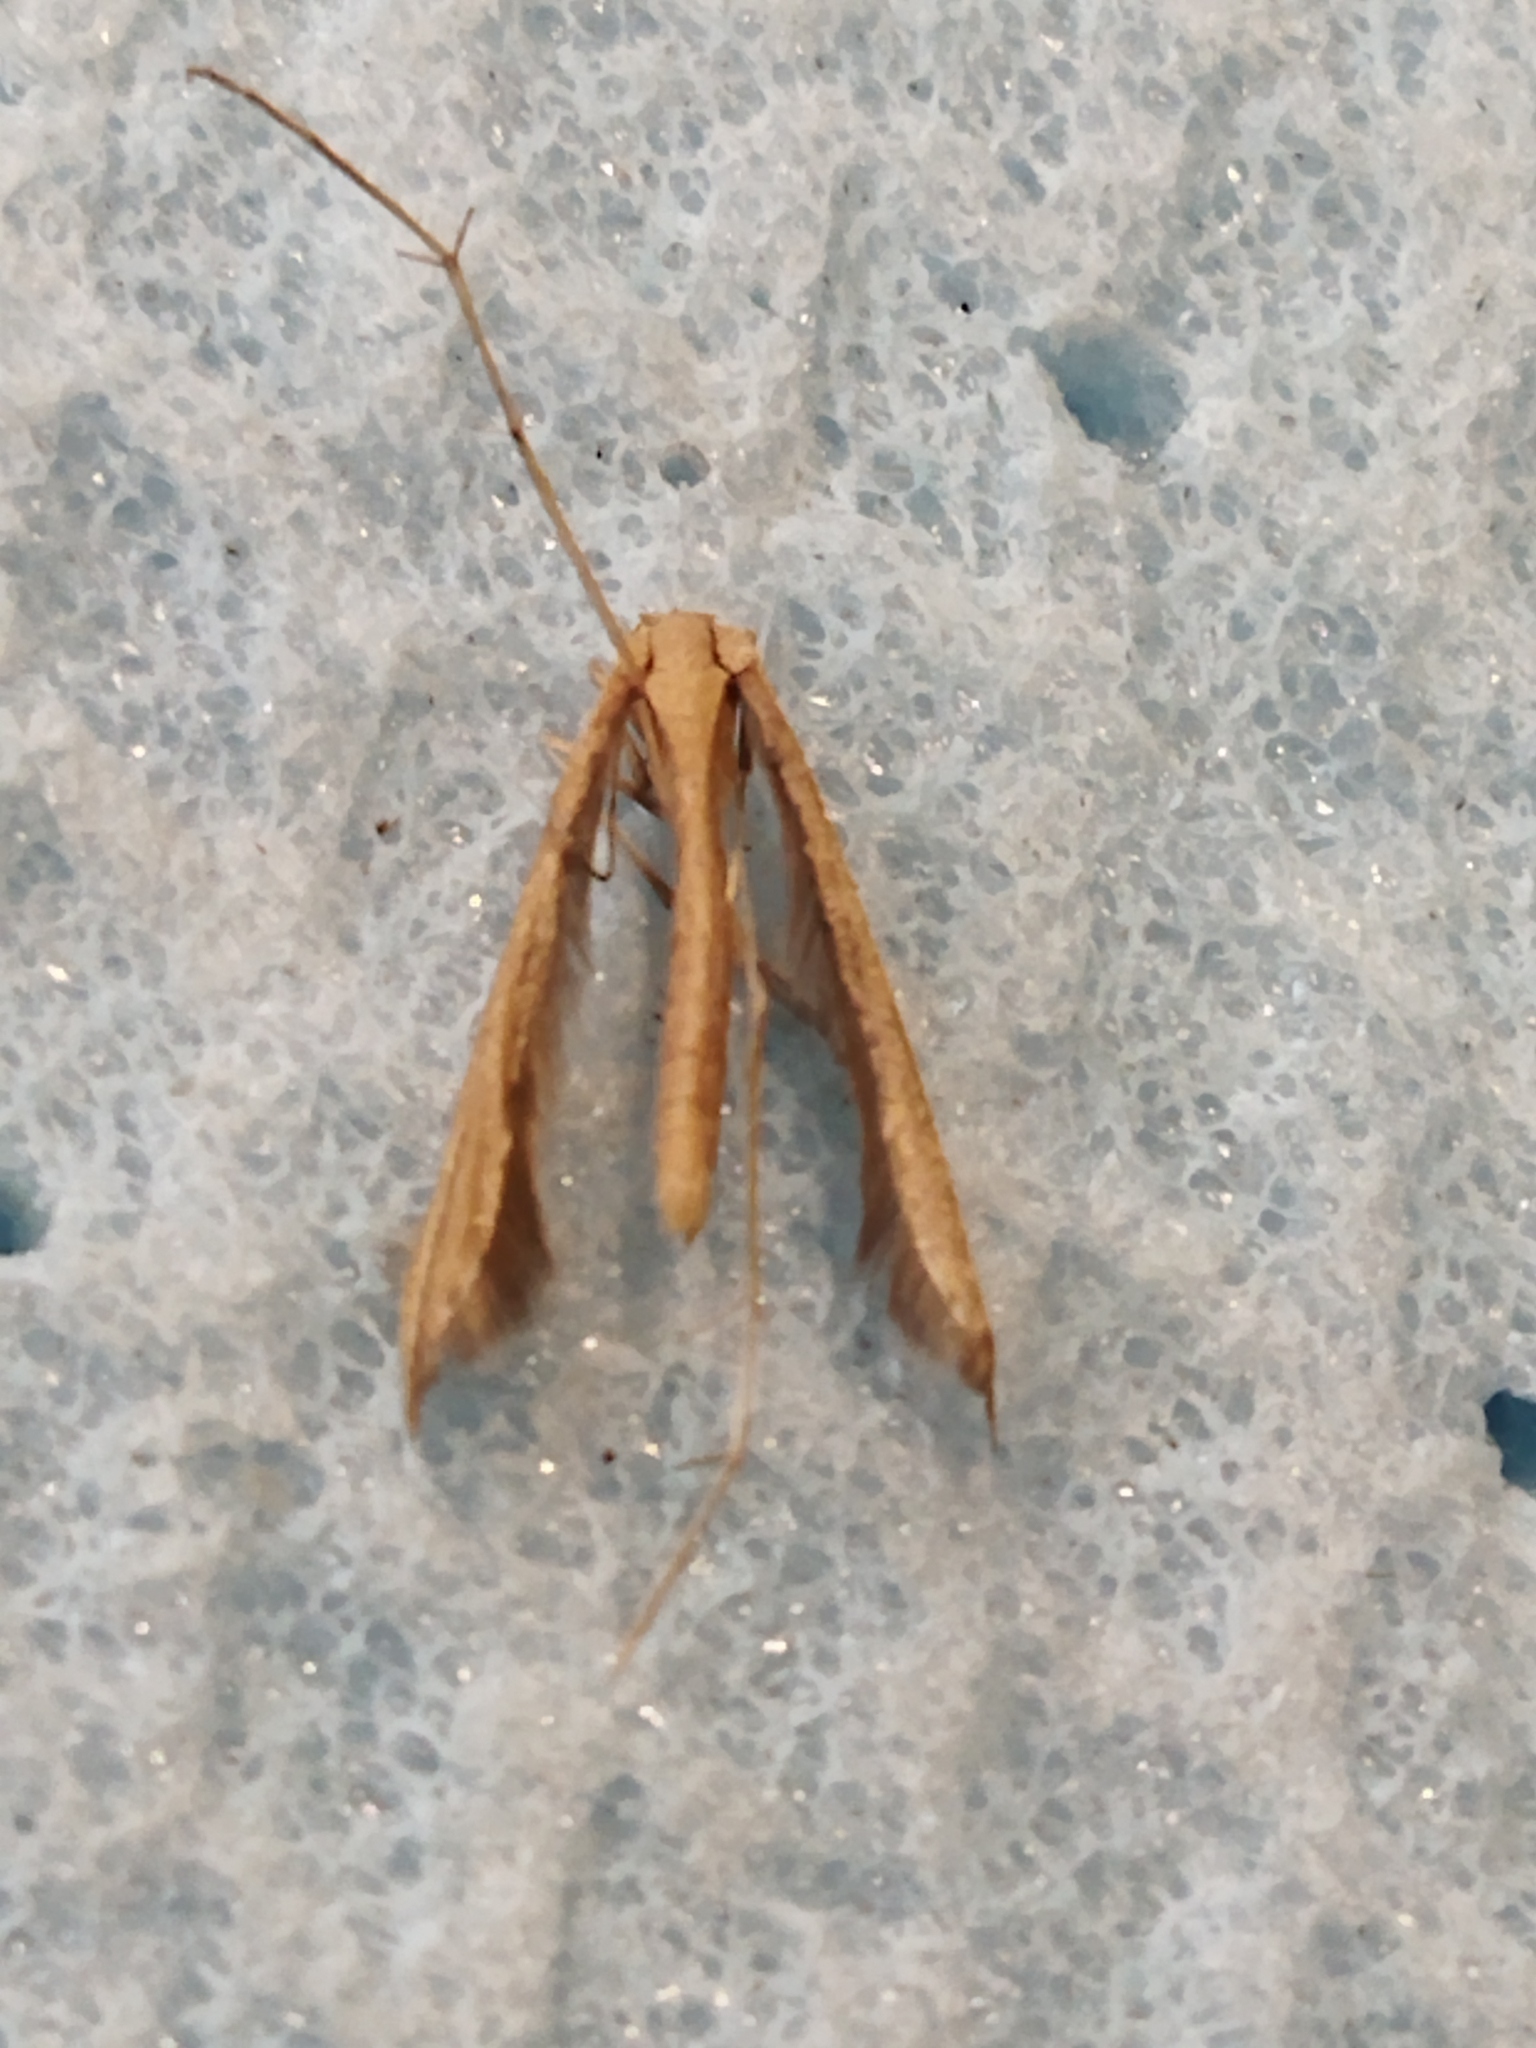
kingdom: Animalia
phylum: Arthropoda
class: Insecta
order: Lepidoptera
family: Pterophoridae
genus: Stenoptilia
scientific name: Stenoptilia mannii
